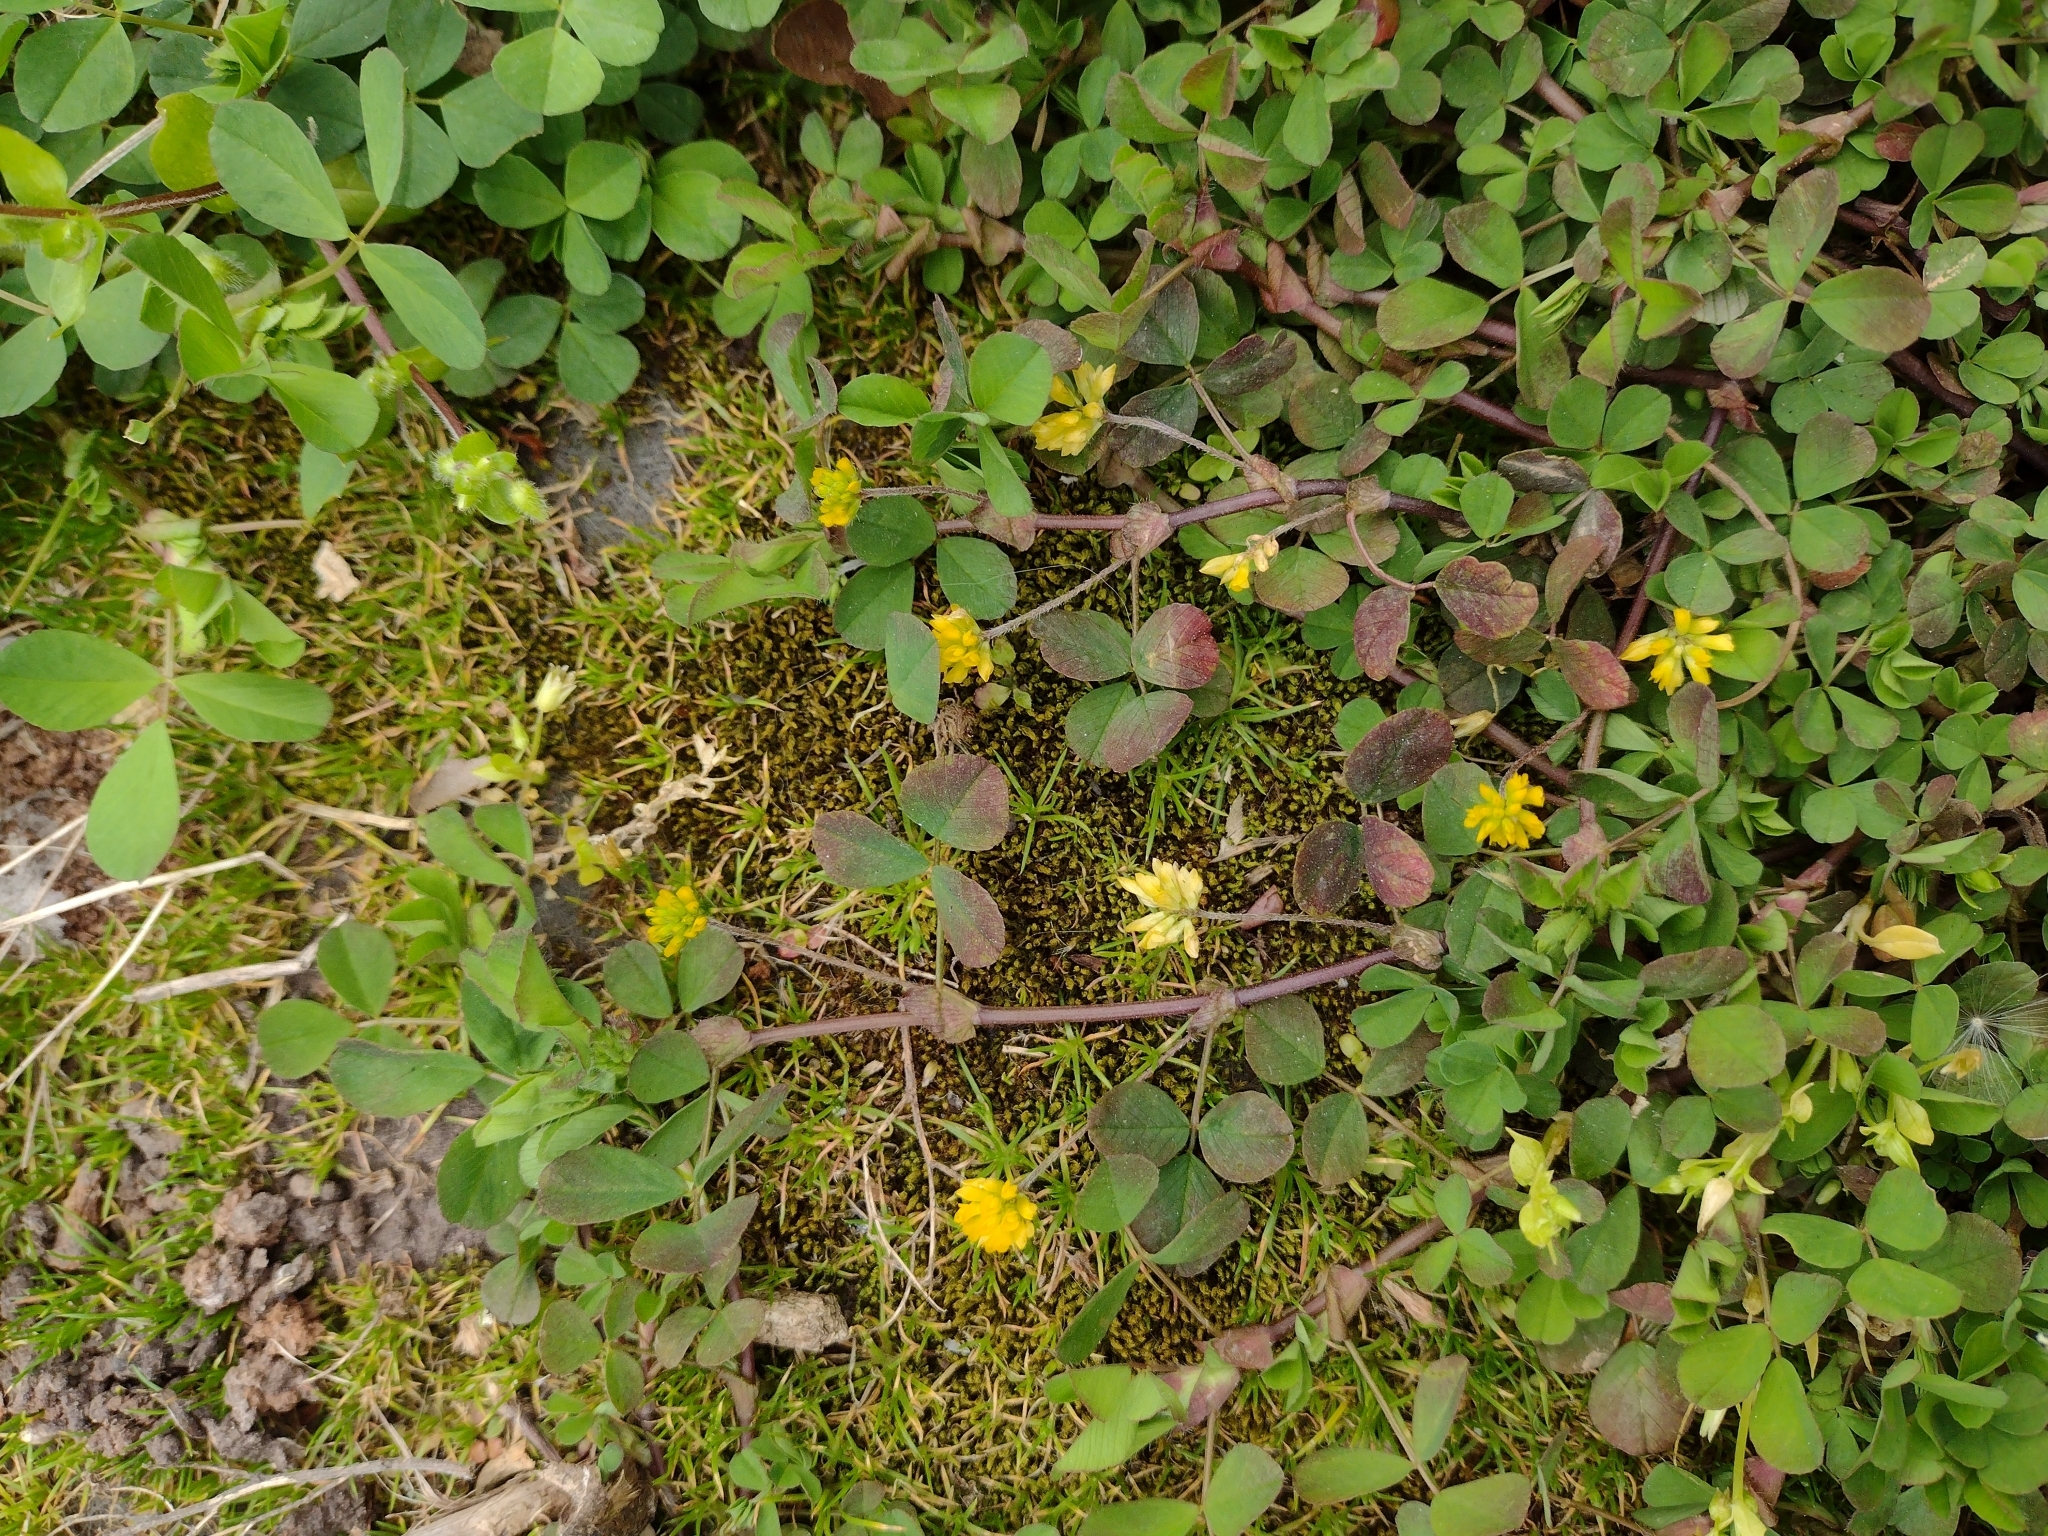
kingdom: Plantae
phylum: Tracheophyta
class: Magnoliopsida
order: Fabales
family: Fabaceae
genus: Trifolium
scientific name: Trifolium dubium
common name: Suckling clover
